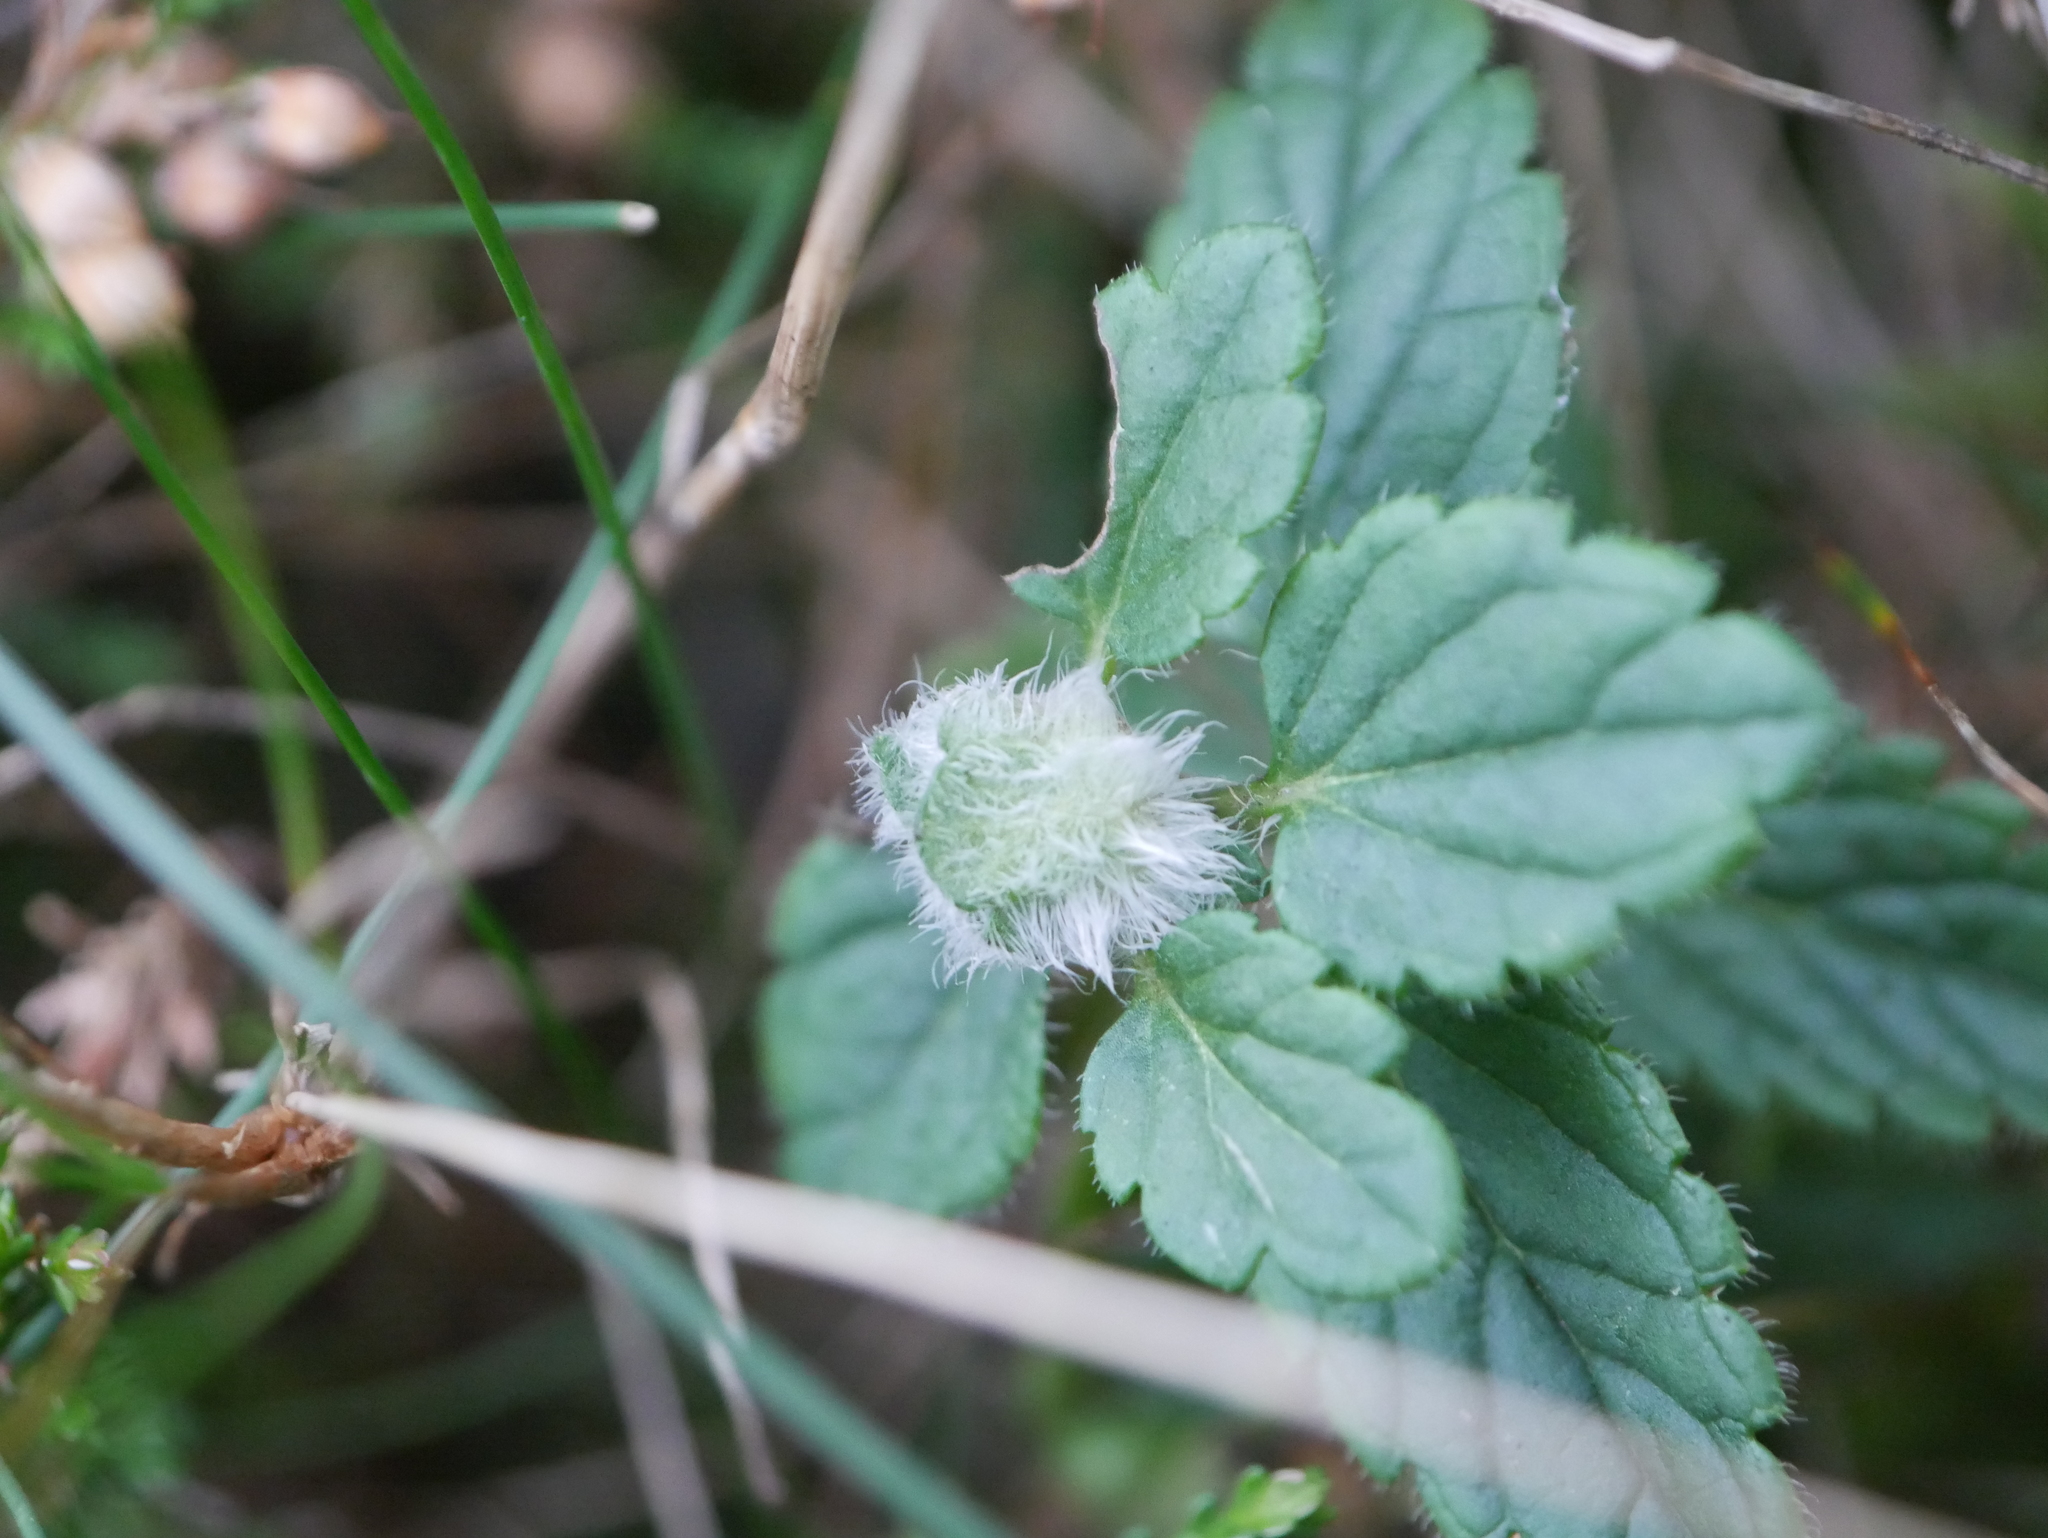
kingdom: Plantae
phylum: Tracheophyta
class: Magnoliopsida
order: Lamiales
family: Plantaginaceae
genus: Veronica
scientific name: Veronica chamaedrys
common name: Germander speedwell
